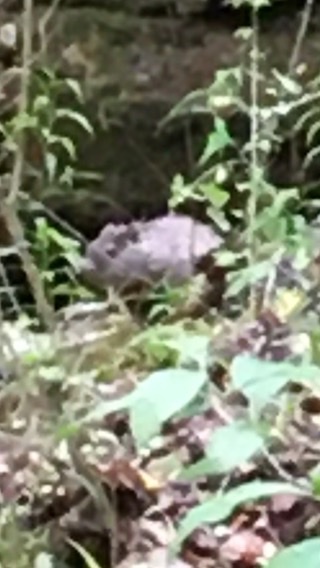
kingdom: Animalia
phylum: Chordata
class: Mammalia
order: Rodentia
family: Sciuridae
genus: Marmota
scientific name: Marmota monax
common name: Groundhog
